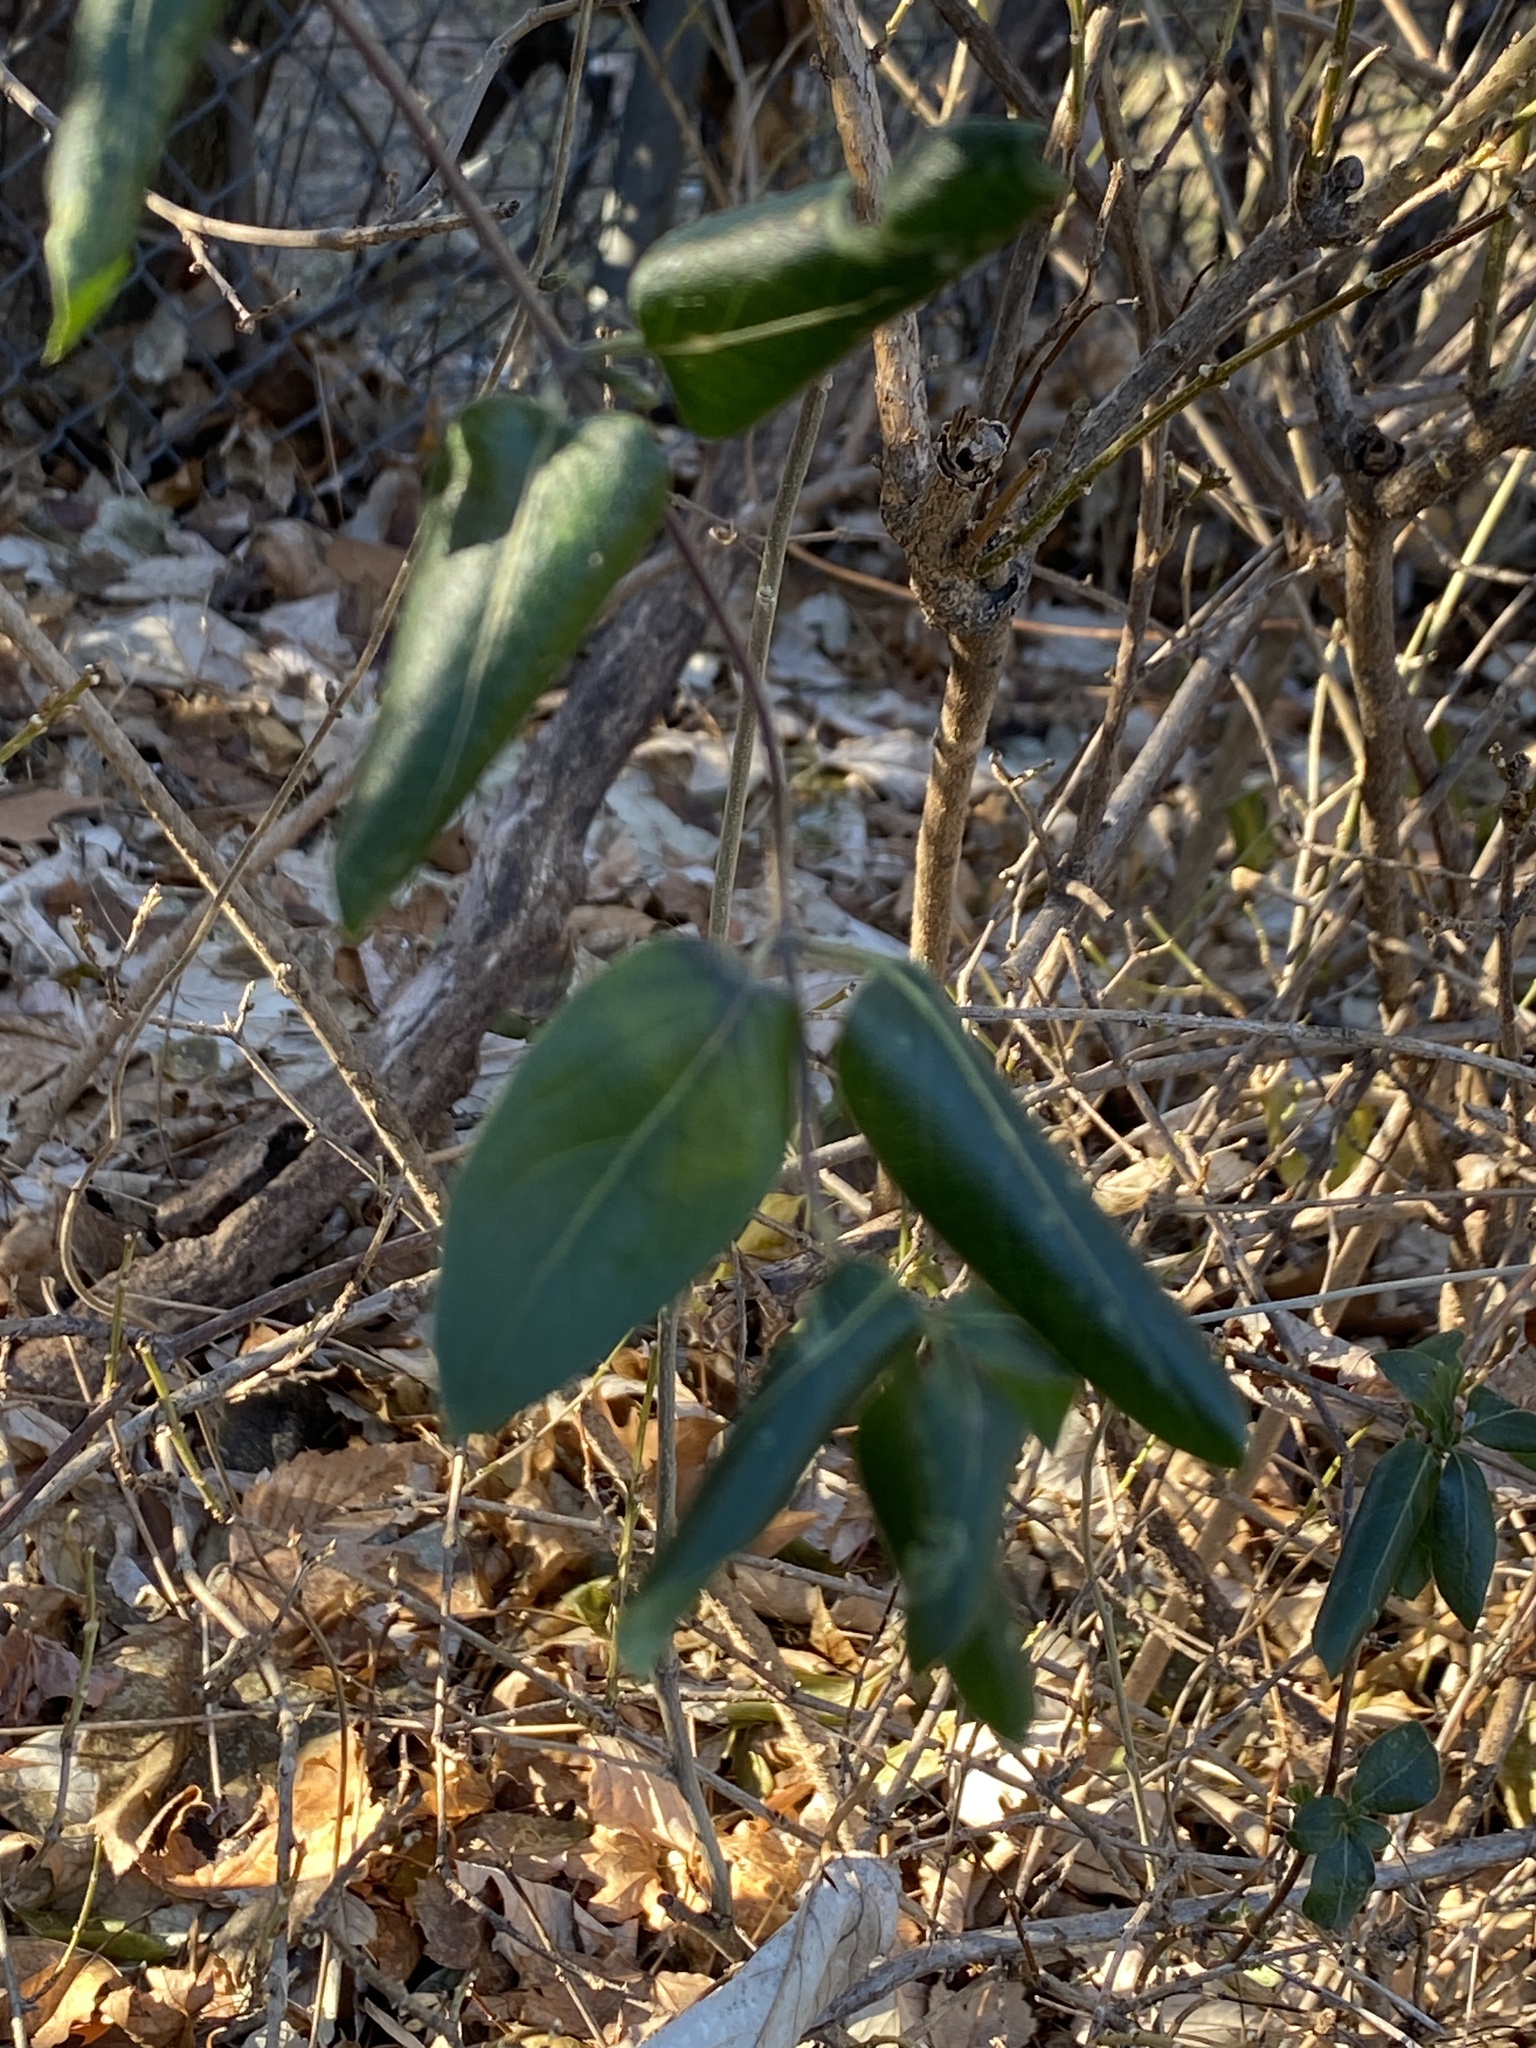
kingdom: Plantae
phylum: Tracheophyta
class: Magnoliopsida
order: Dipsacales
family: Caprifoliaceae
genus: Lonicera
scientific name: Lonicera japonica
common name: Japanese honeysuckle
